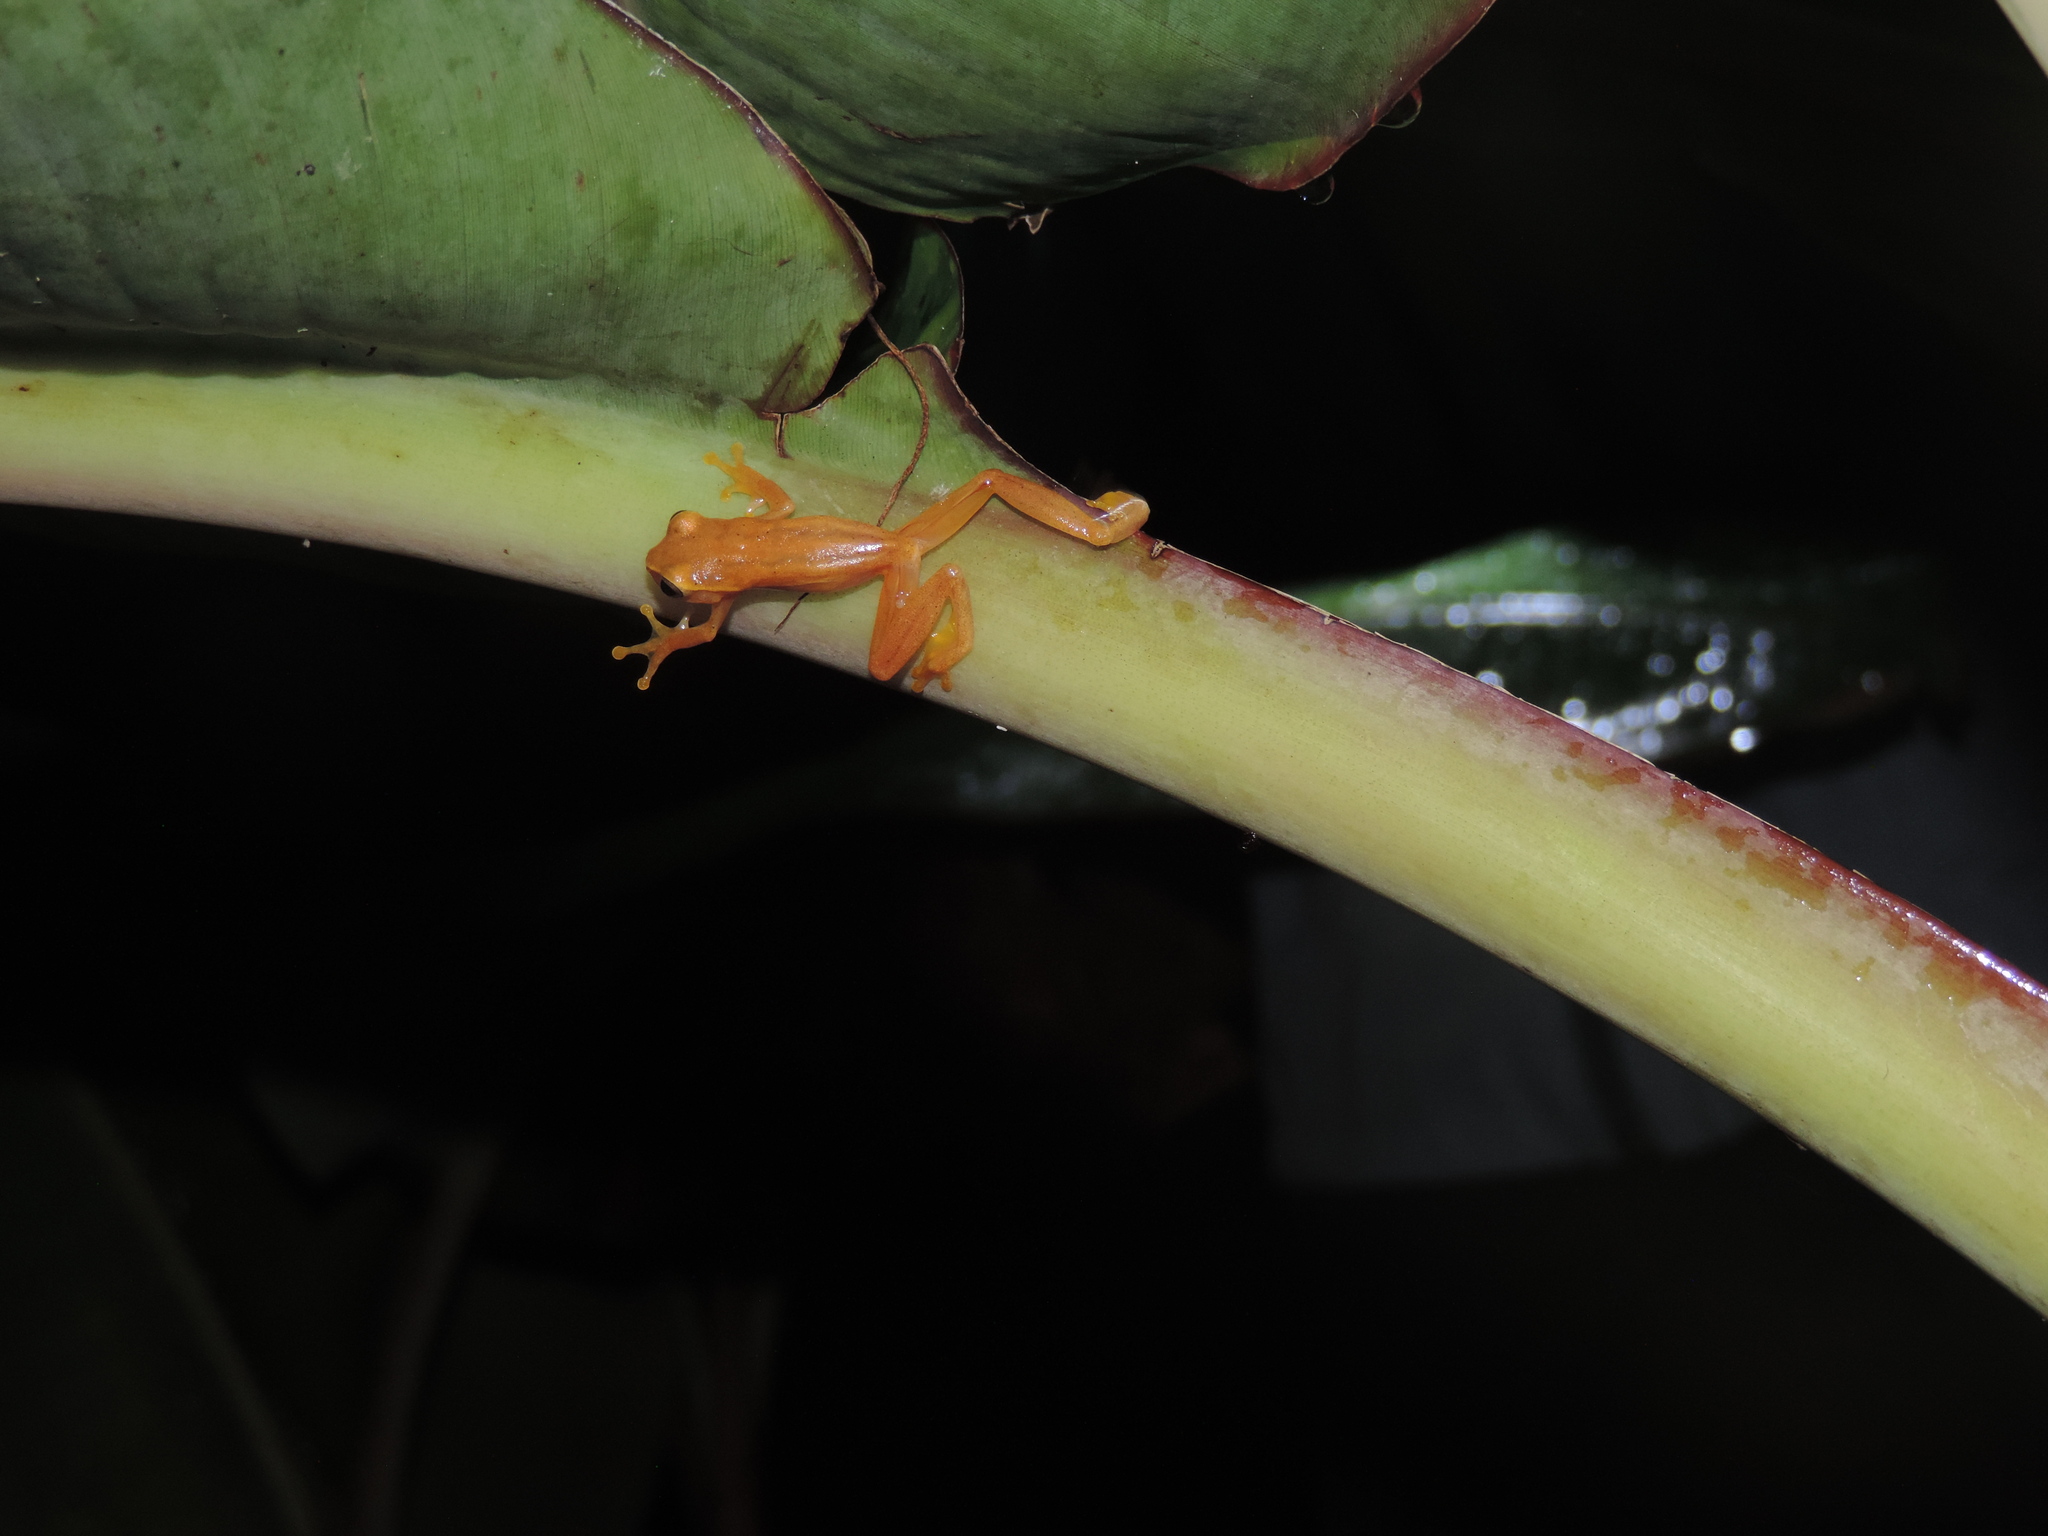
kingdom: Animalia
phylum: Chordata
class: Amphibia
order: Anura
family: Hylidae
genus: Dendropsophus
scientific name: Dendropsophus microcephalus
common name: Small-headed treefrog
